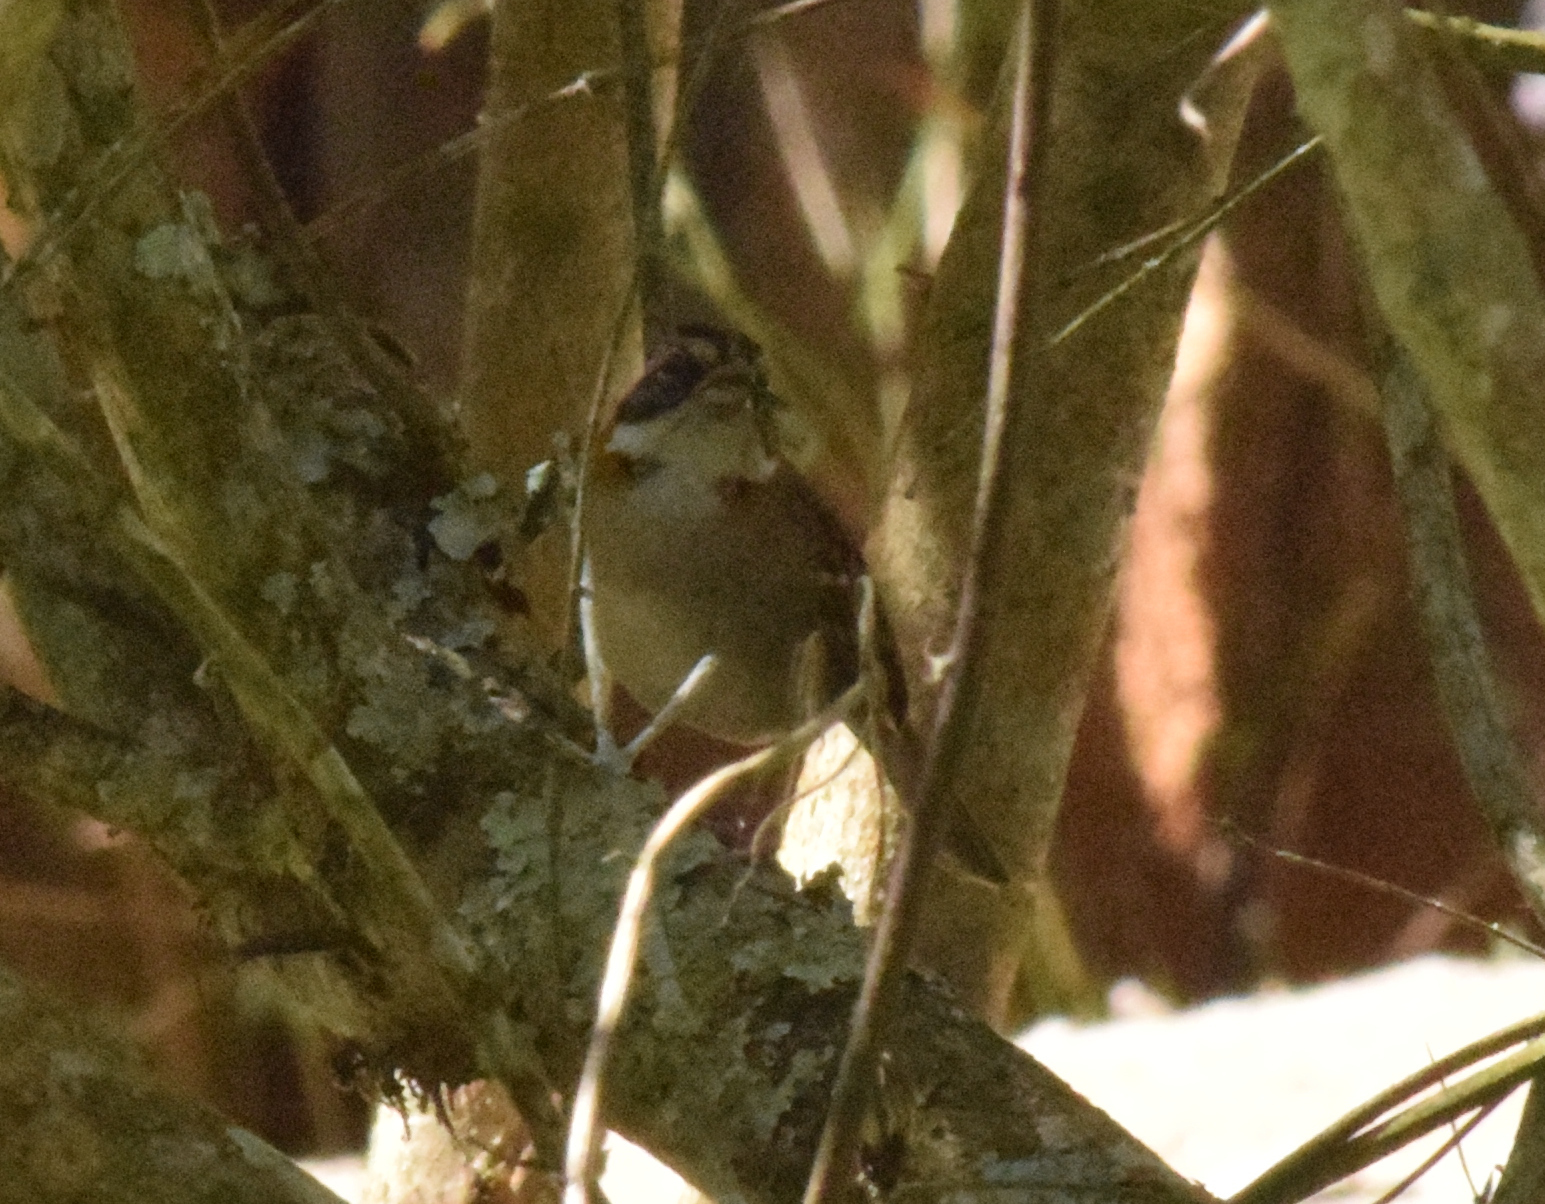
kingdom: Animalia
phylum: Chordata
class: Aves
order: Passeriformes
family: Passerellidae
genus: Zonotrichia
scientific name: Zonotrichia capensis
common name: Rufous-collared sparrow
